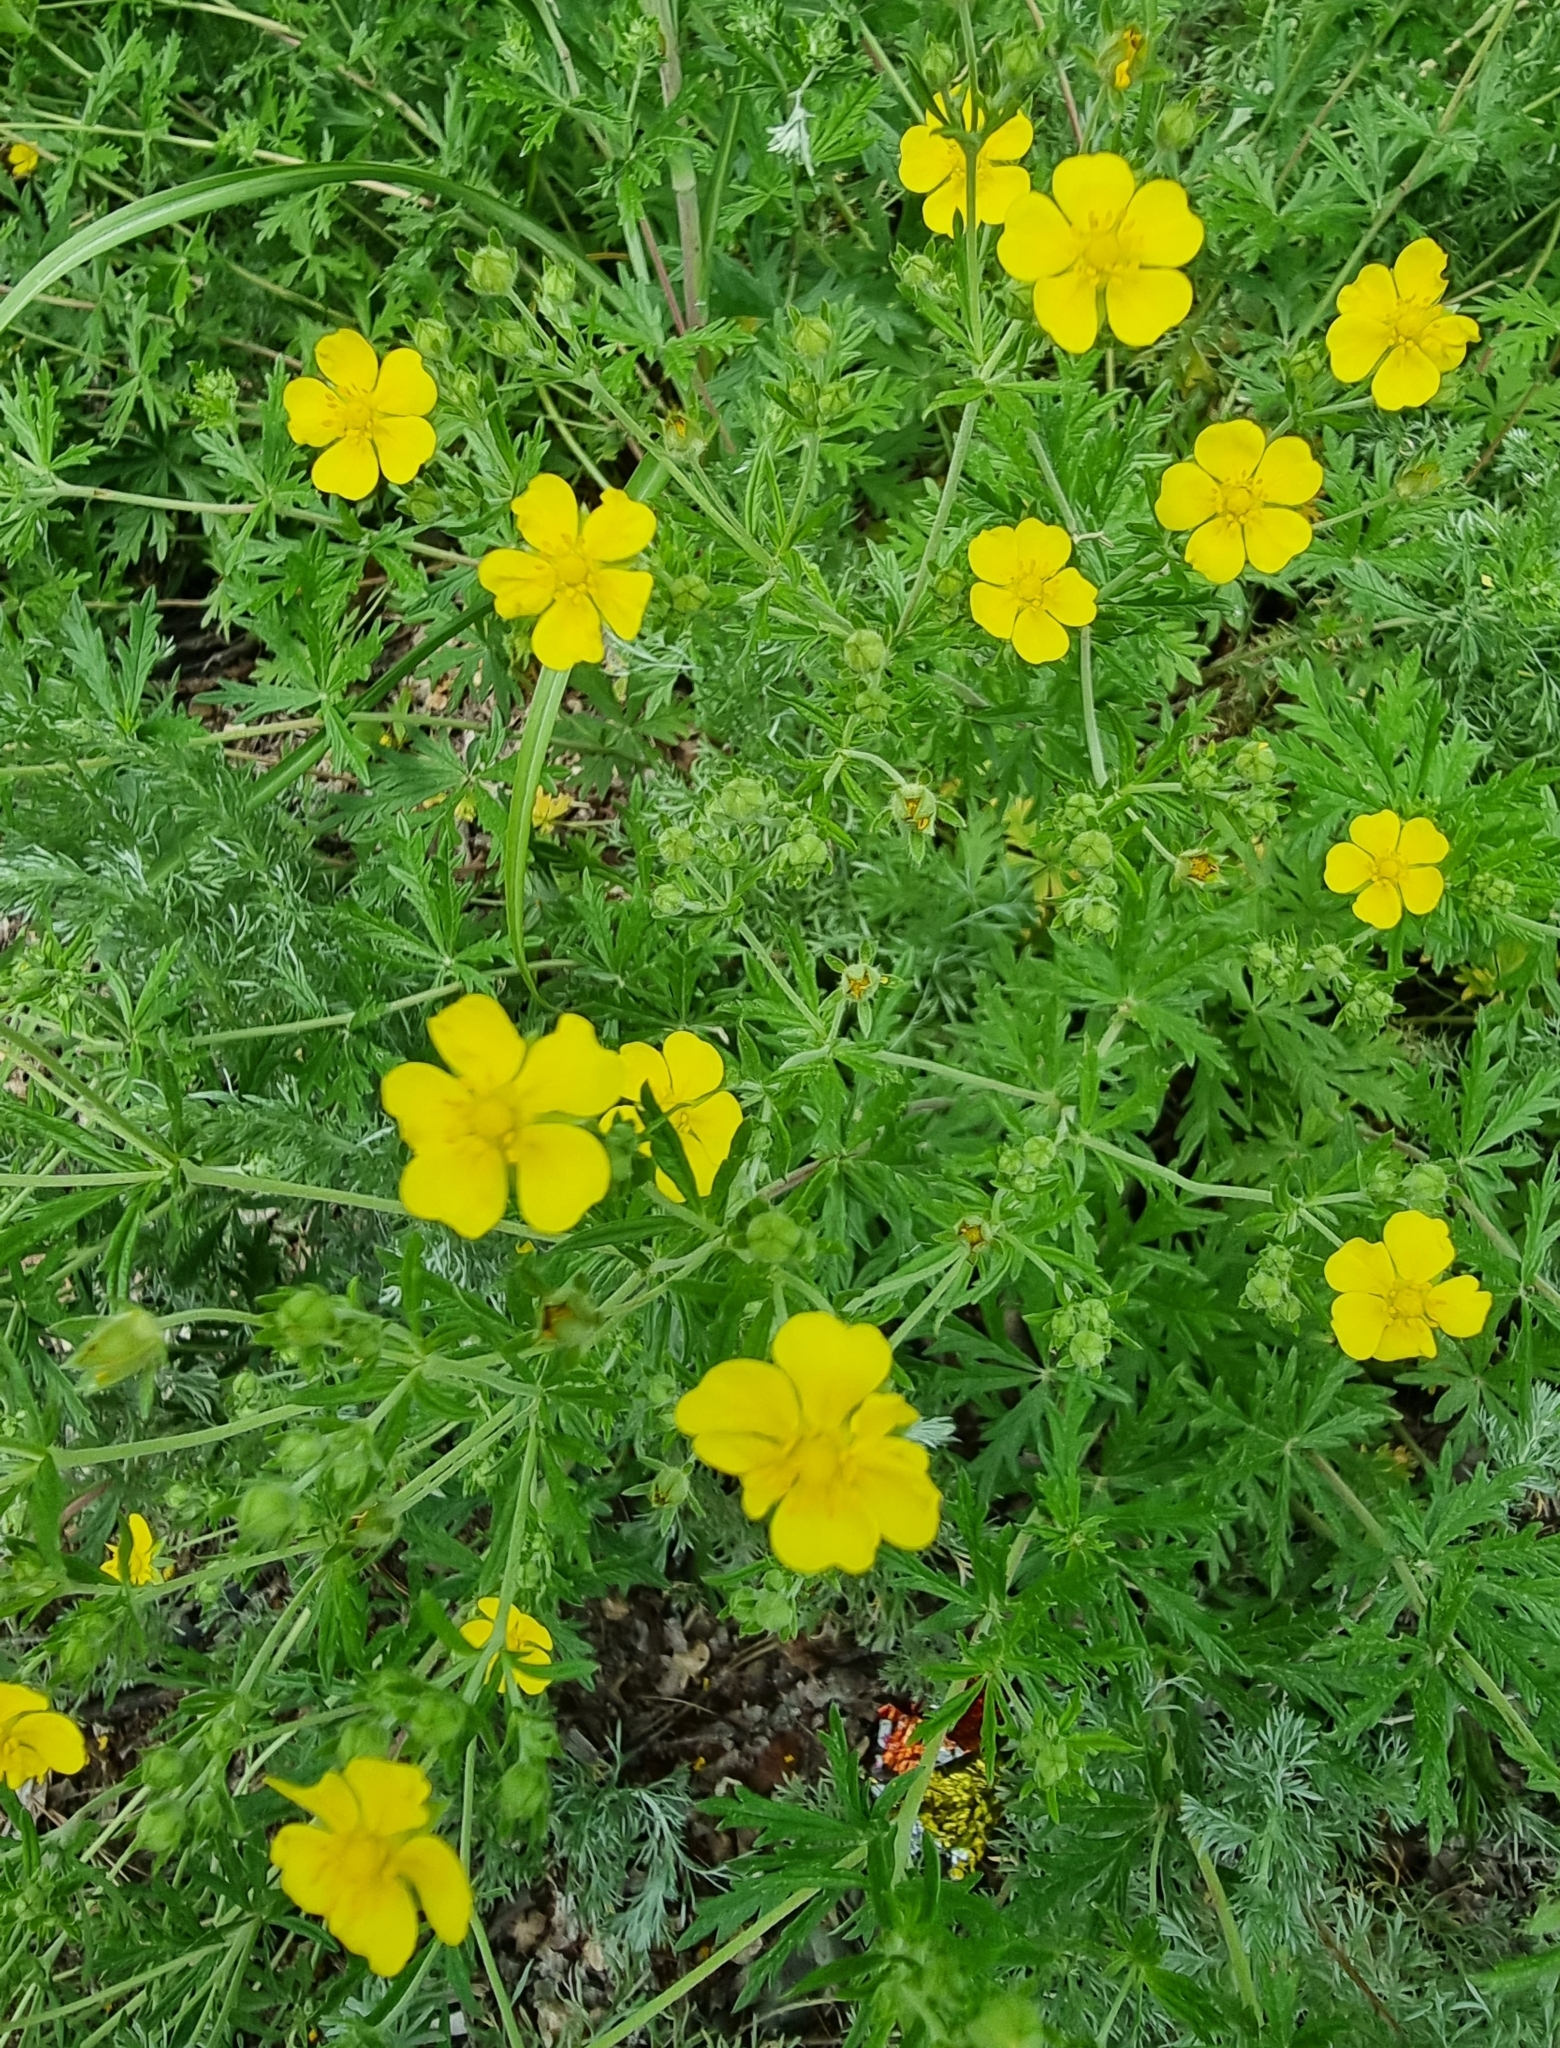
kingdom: Plantae
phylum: Tracheophyta
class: Magnoliopsida
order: Rosales
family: Rosaceae
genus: Potentilla
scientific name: Potentilla argentea
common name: Hoary cinquefoil
